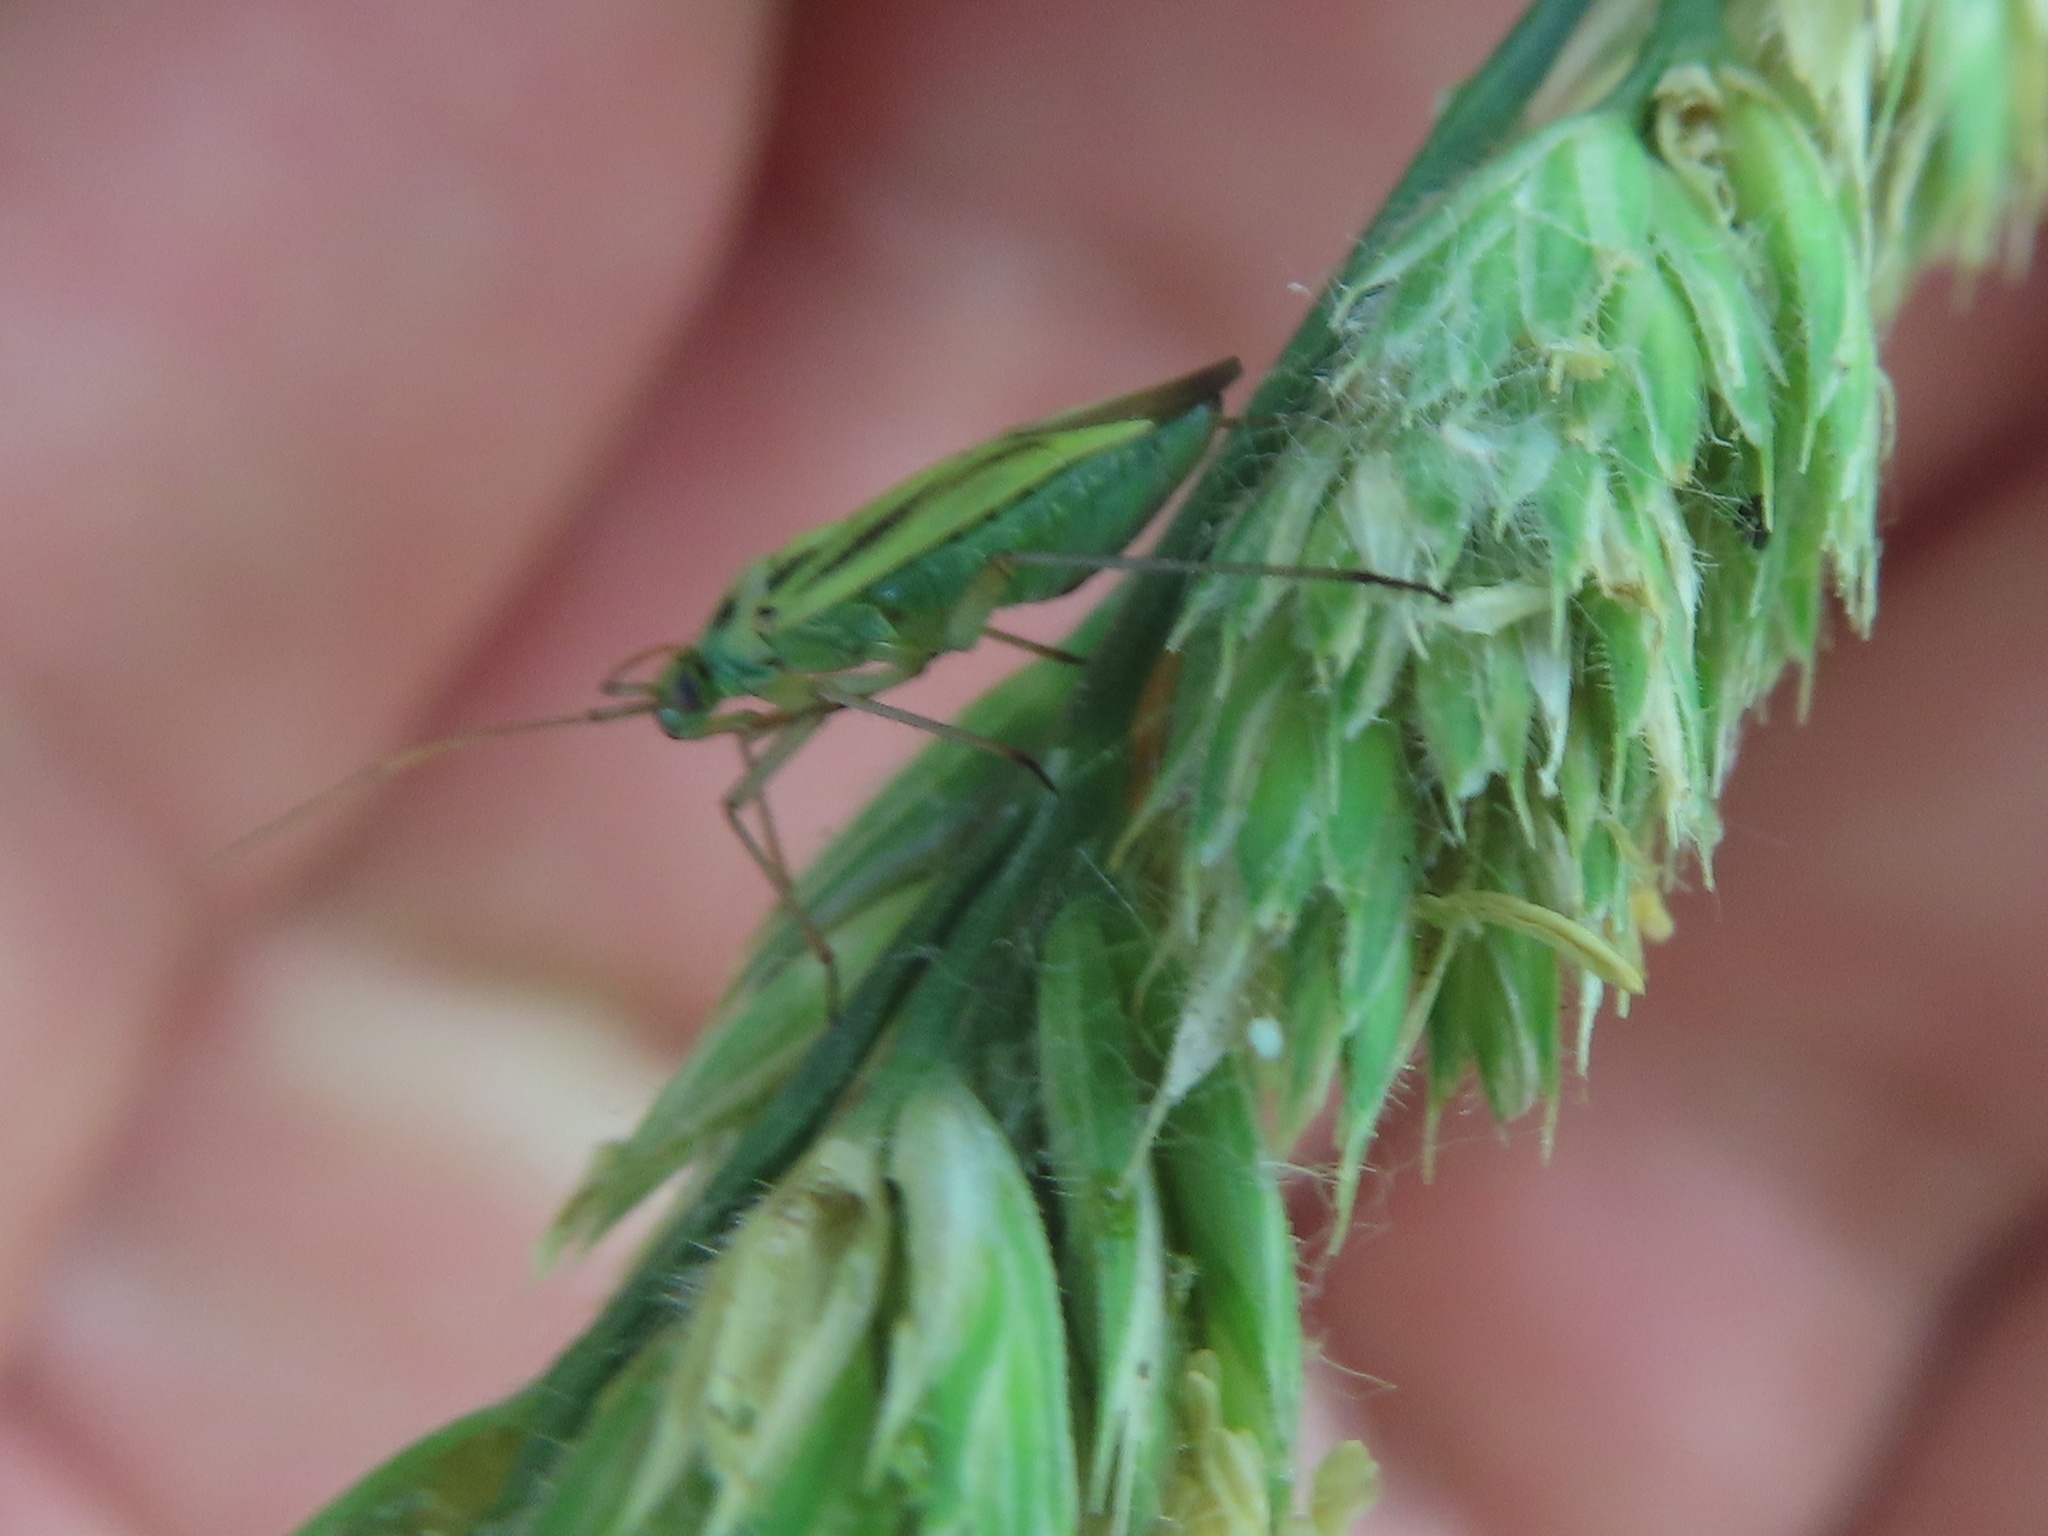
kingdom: Animalia
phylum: Arthropoda
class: Insecta
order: Hemiptera
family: Miridae
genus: Stenotus
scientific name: Stenotus binotatus
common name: Plant bug
